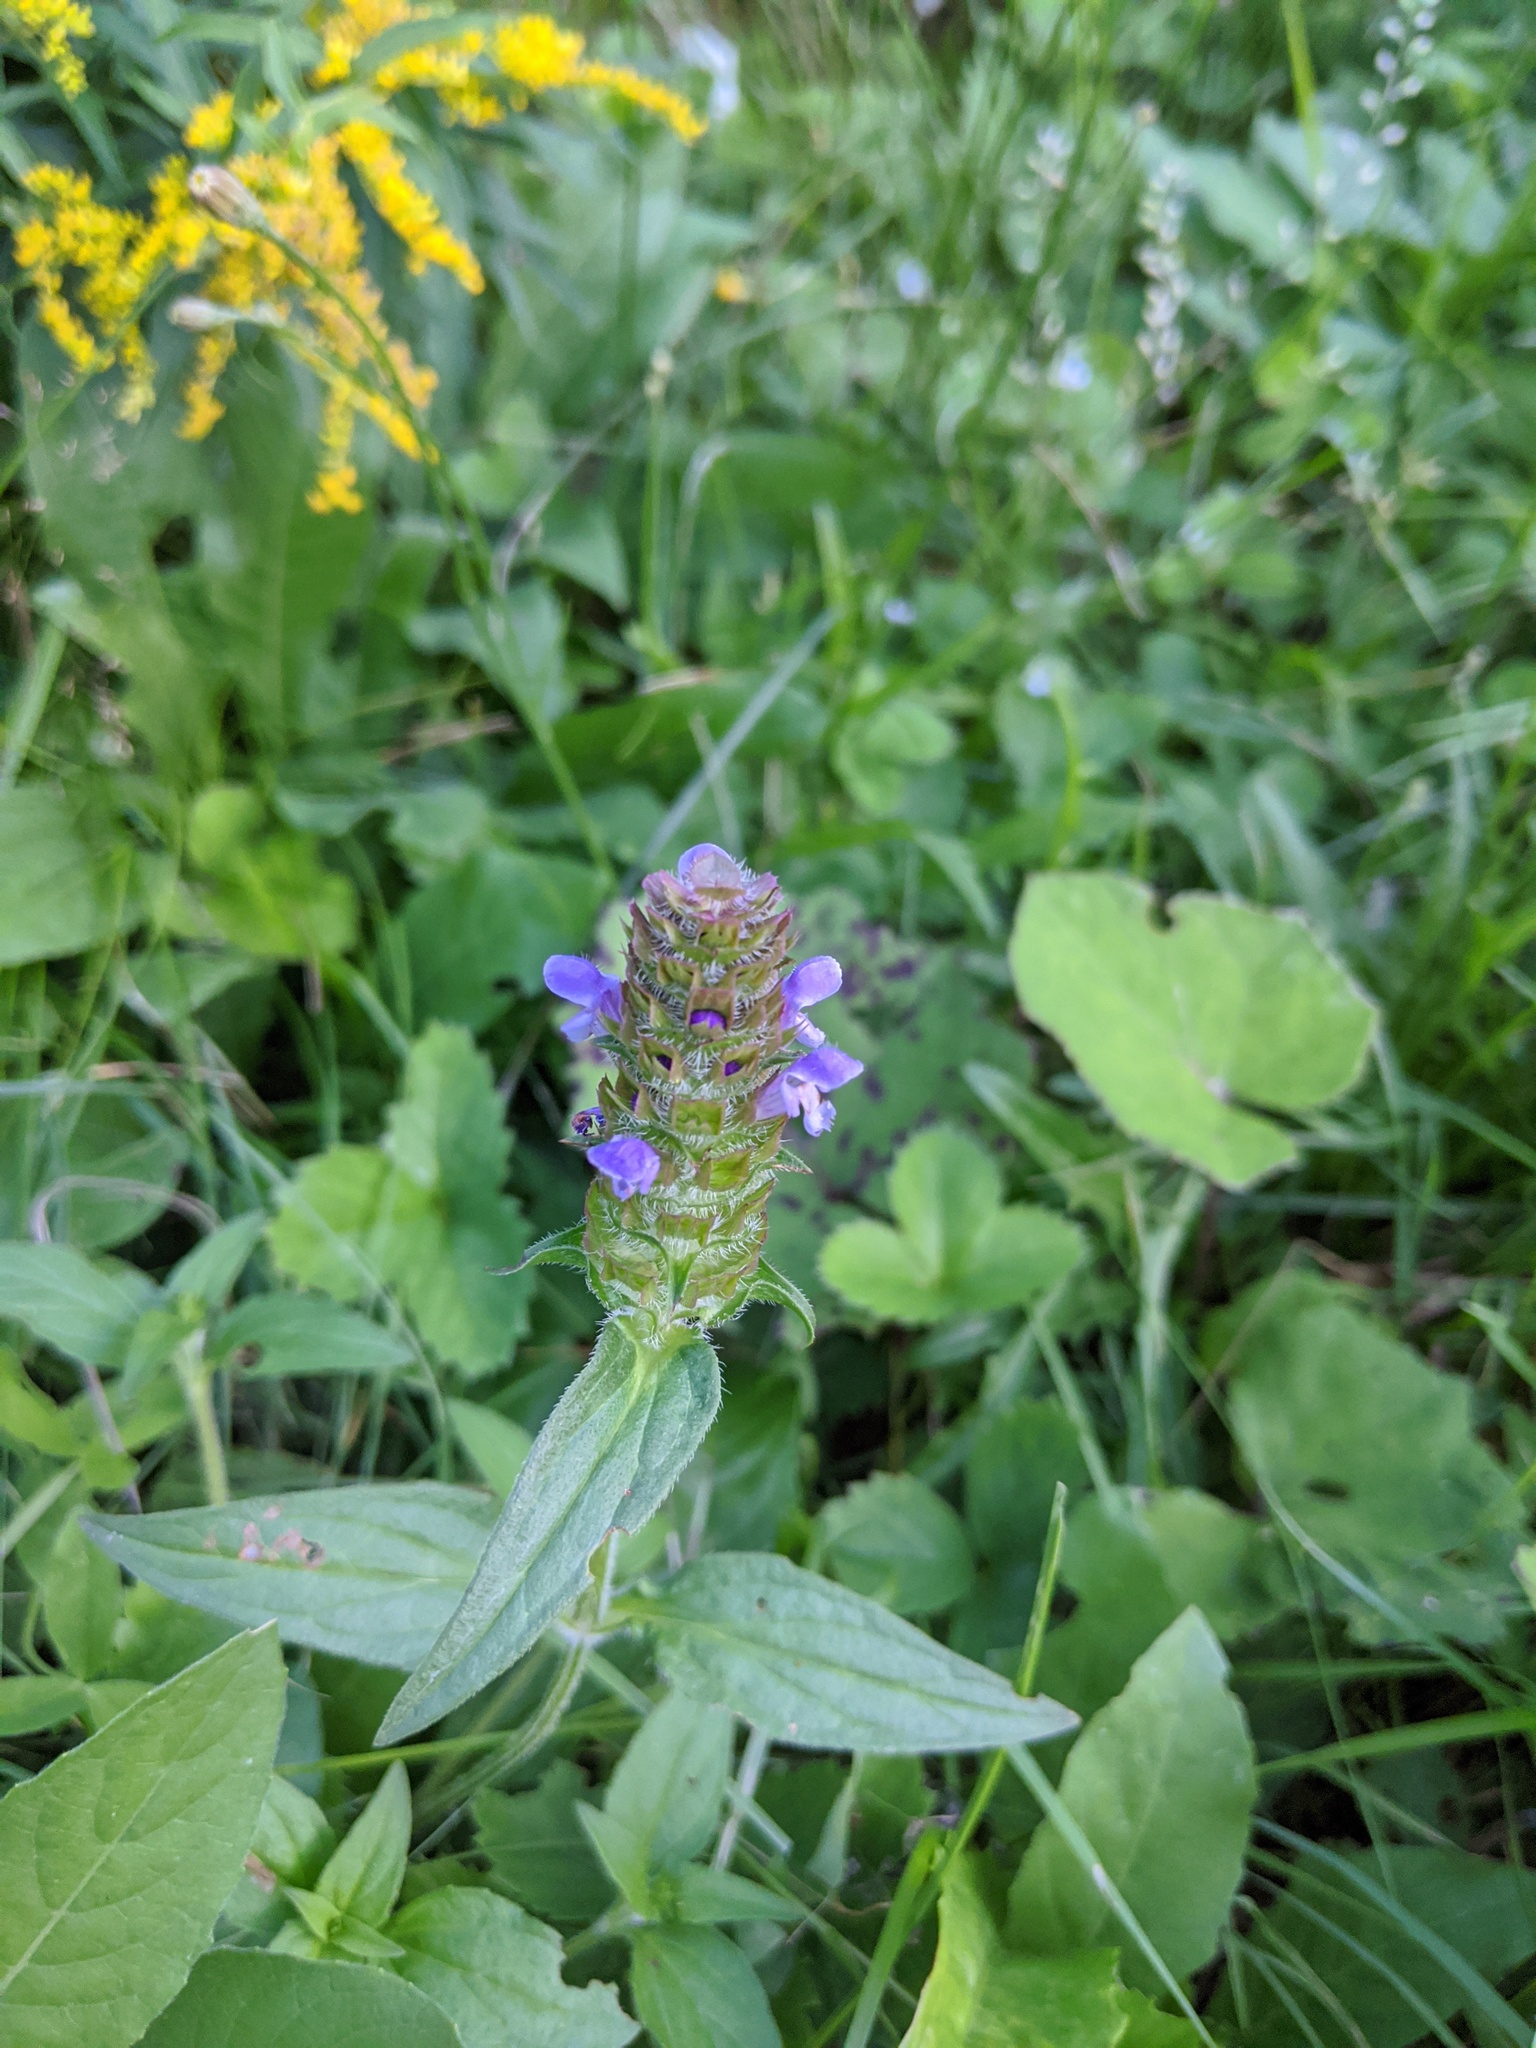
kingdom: Plantae
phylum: Tracheophyta
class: Magnoliopsida
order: Lamiales
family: Lamiaceae
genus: Prunella
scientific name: Prunella vulgaris
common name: Heal-all
